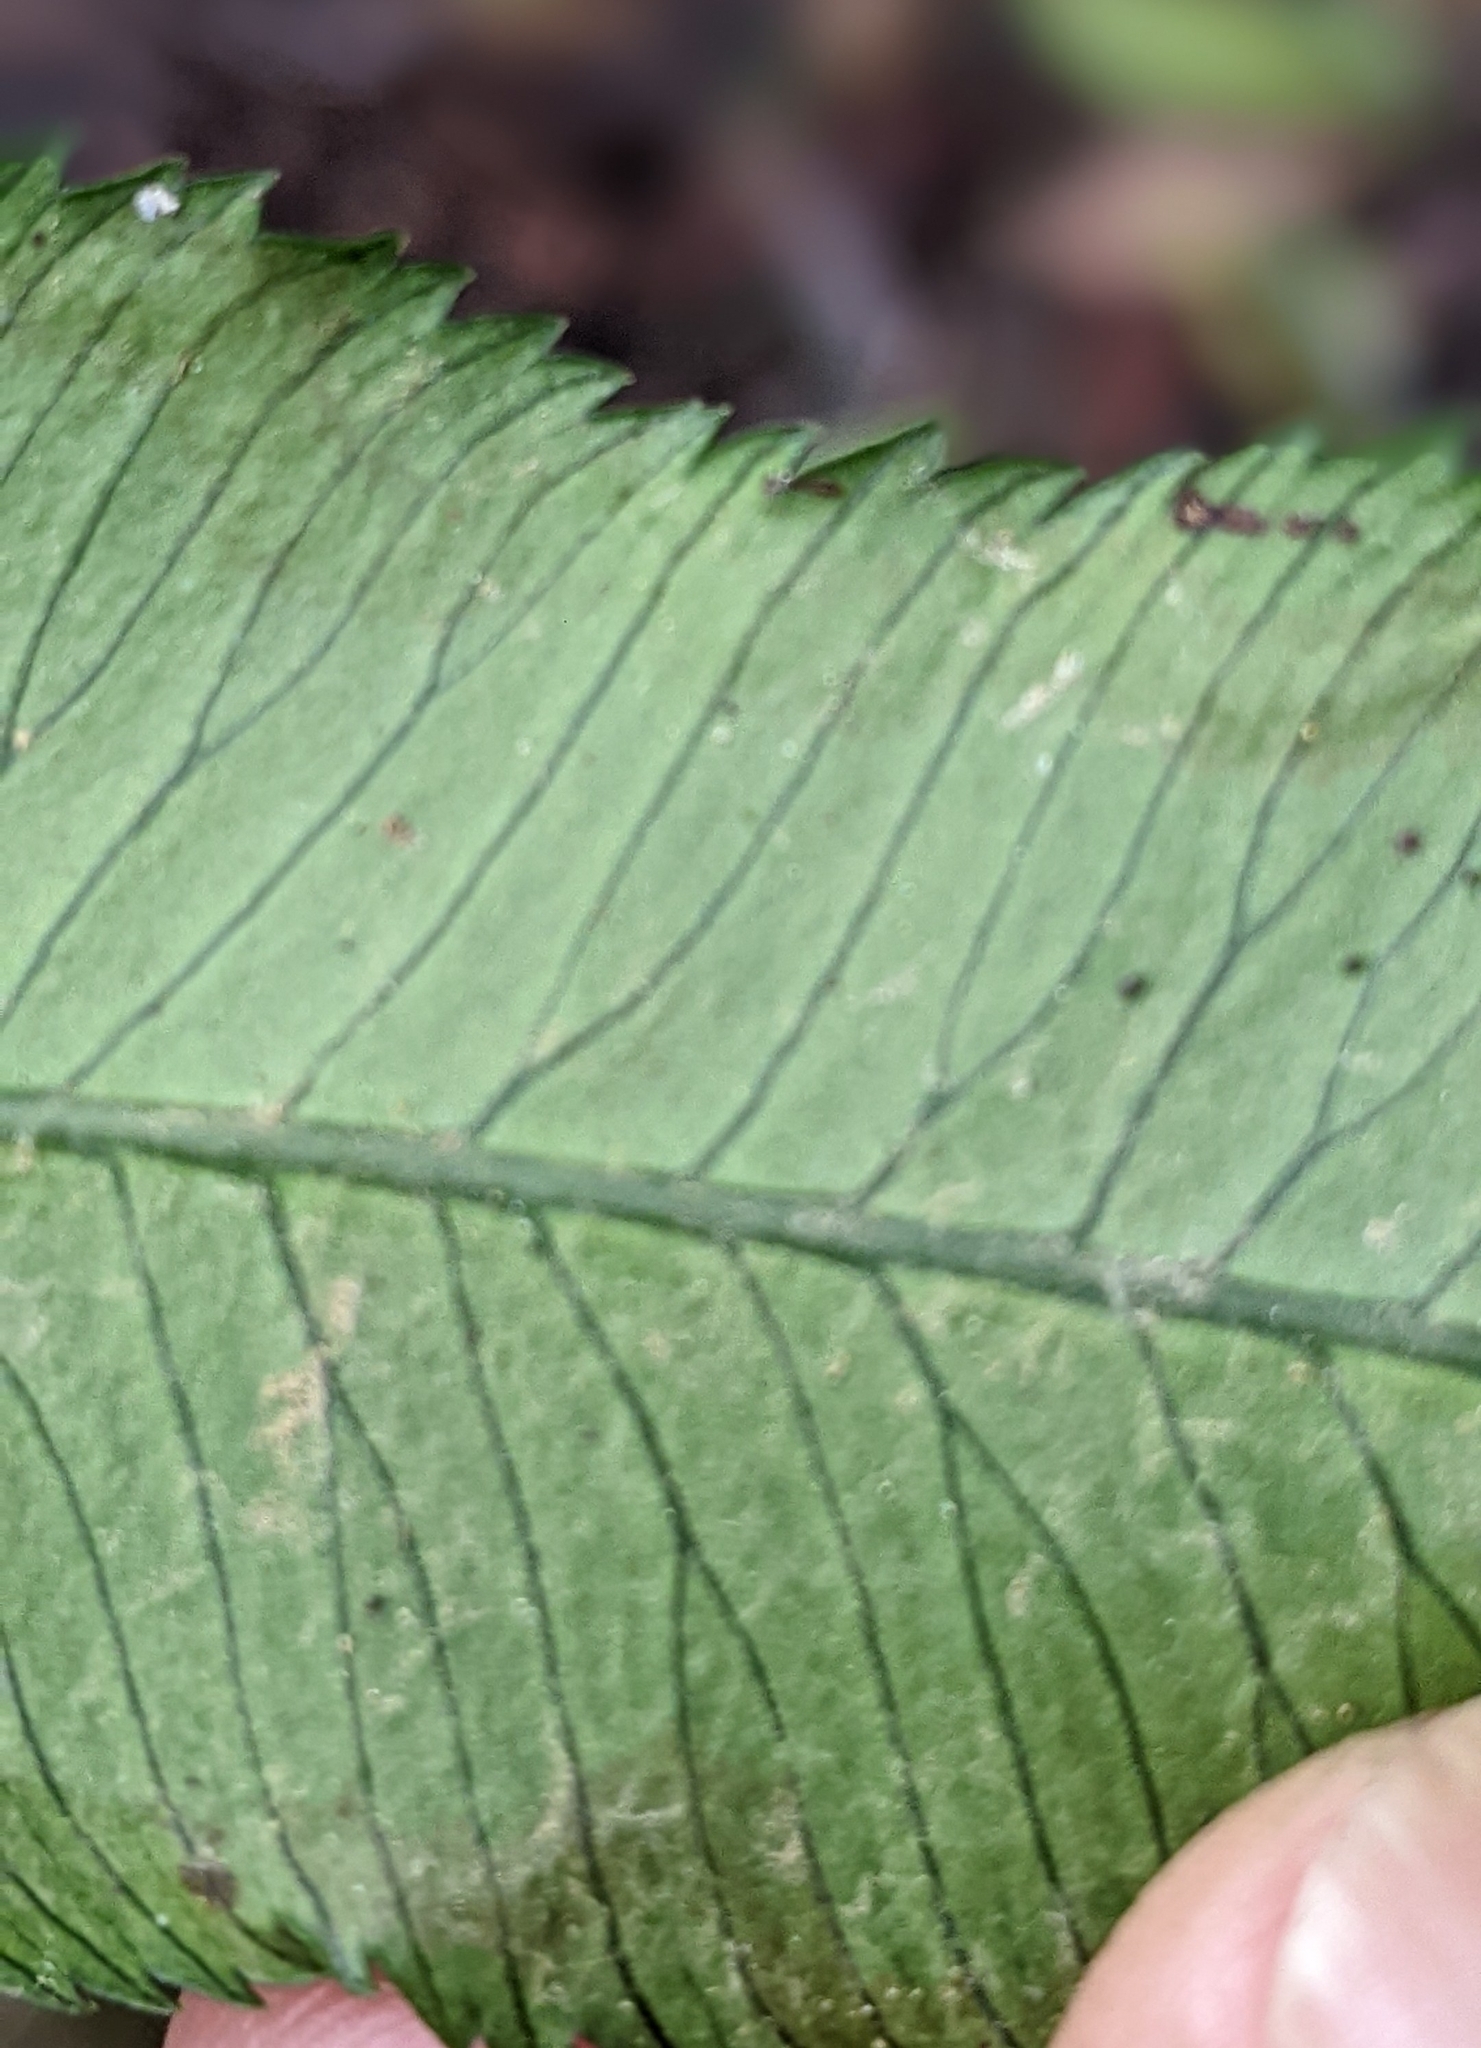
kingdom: Plantae
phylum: Tracheophyta
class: Polypodiopsida
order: Marattiales
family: Marattiaceae
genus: Angiopteris
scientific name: Angiopteris lygodiifolia
